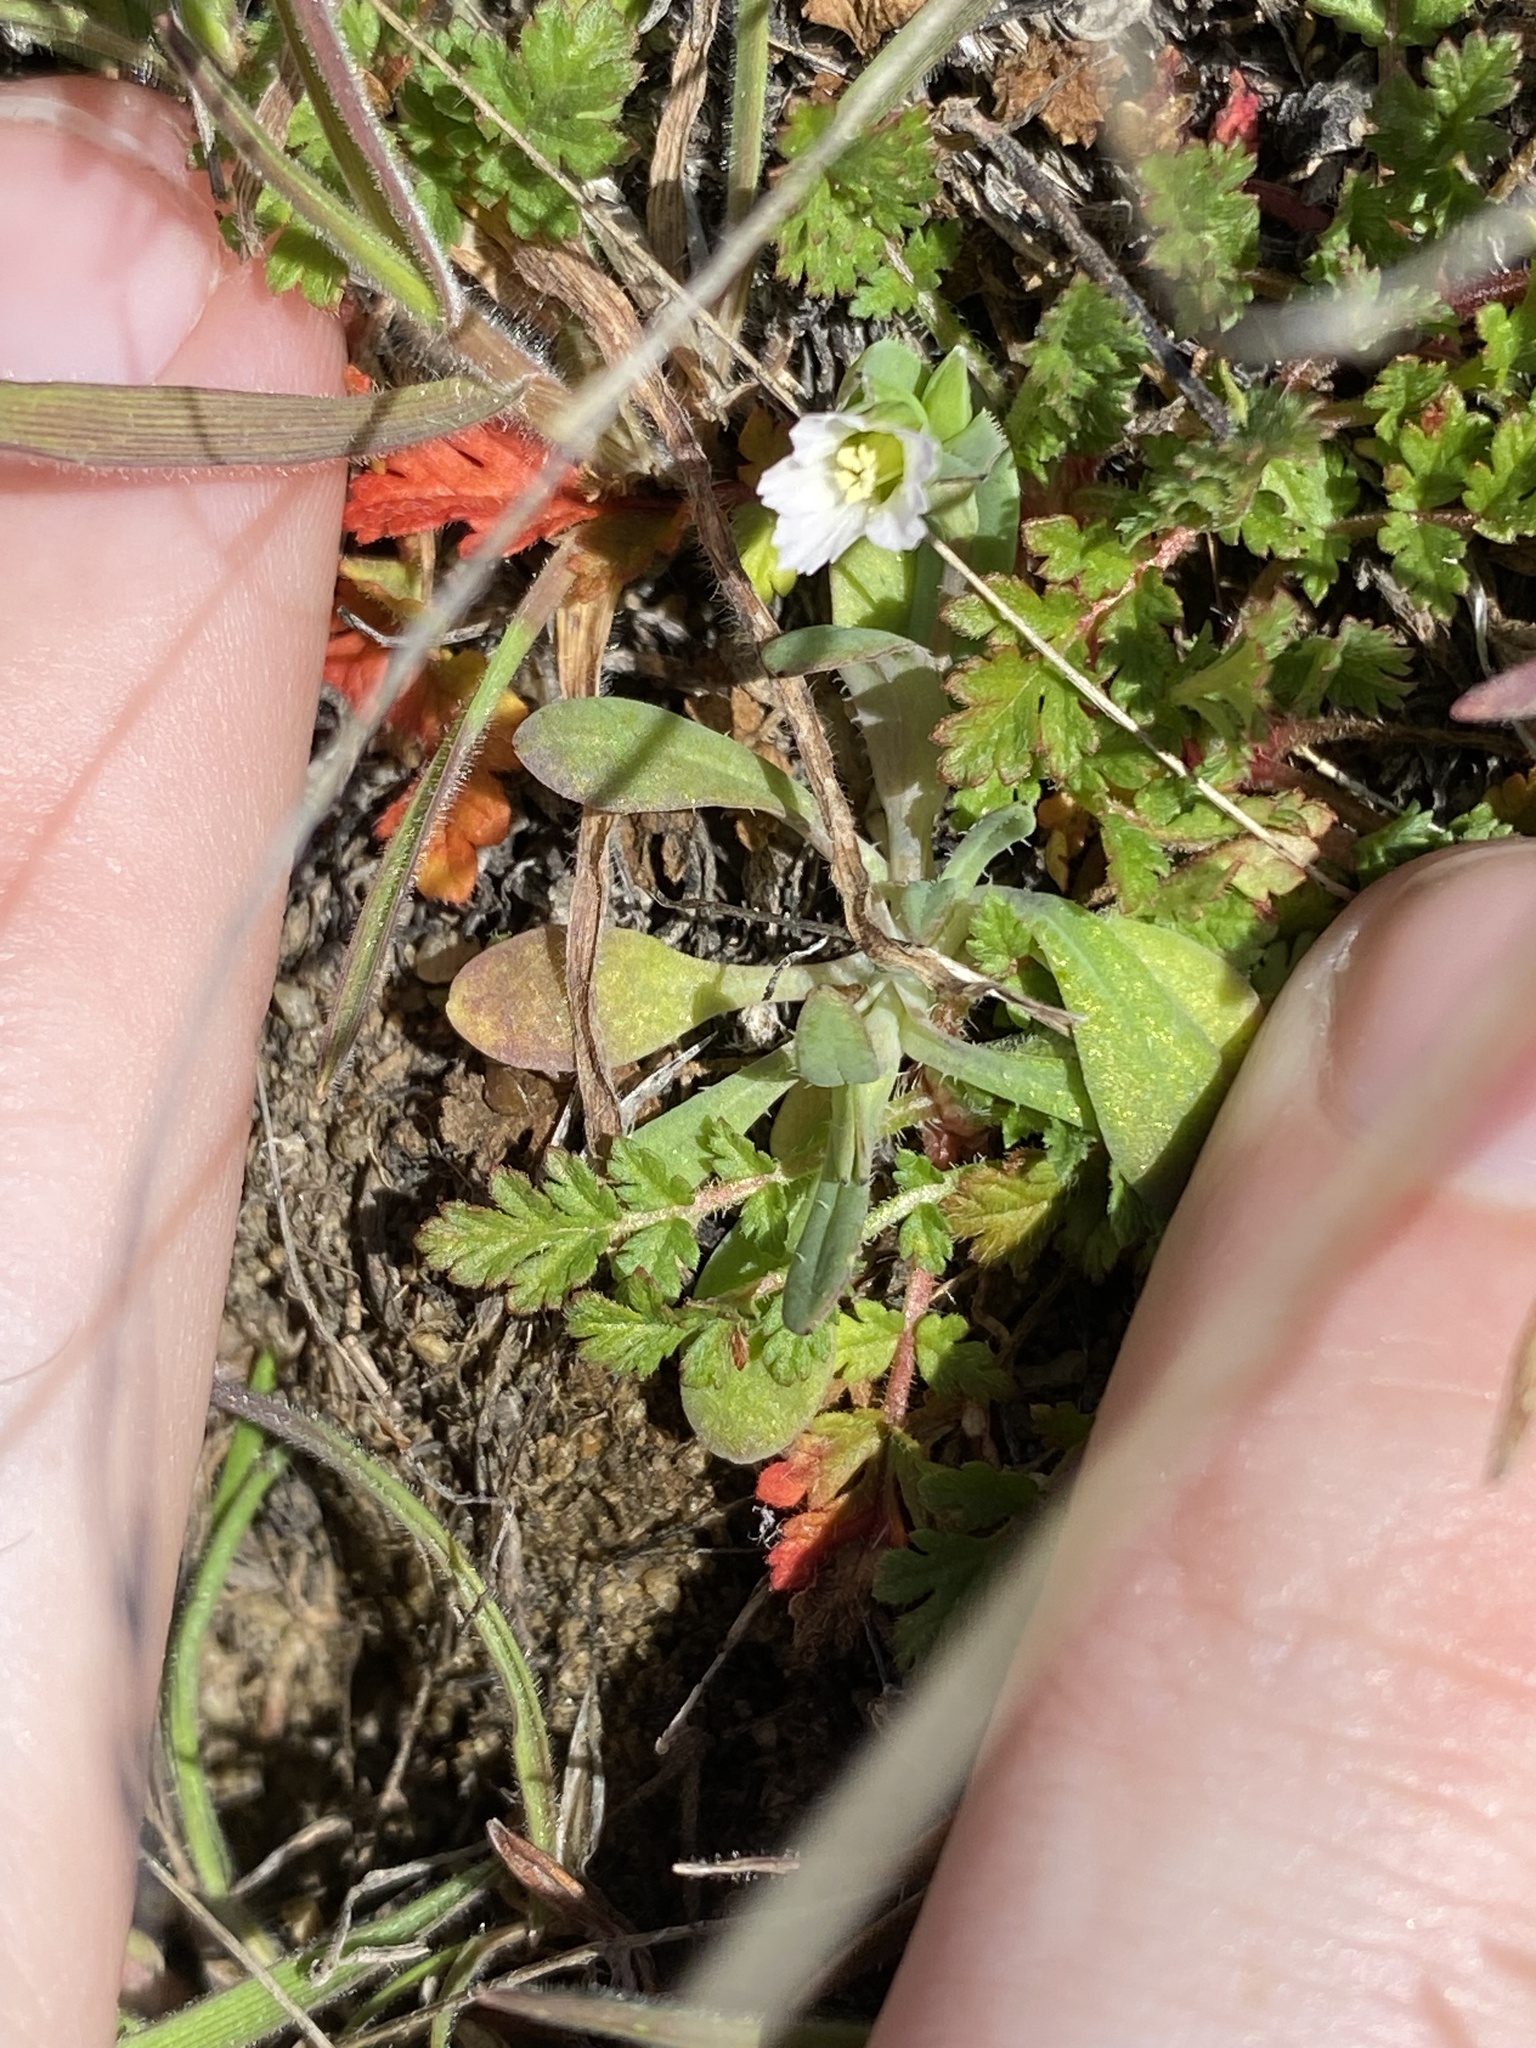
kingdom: Plantae
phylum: Tracheophyta
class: Magnoliopsida
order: Caryophyllales
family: Caryophyllaceae
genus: Holosteum
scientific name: Holosteum umbellatum
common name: Jagged chickweed
